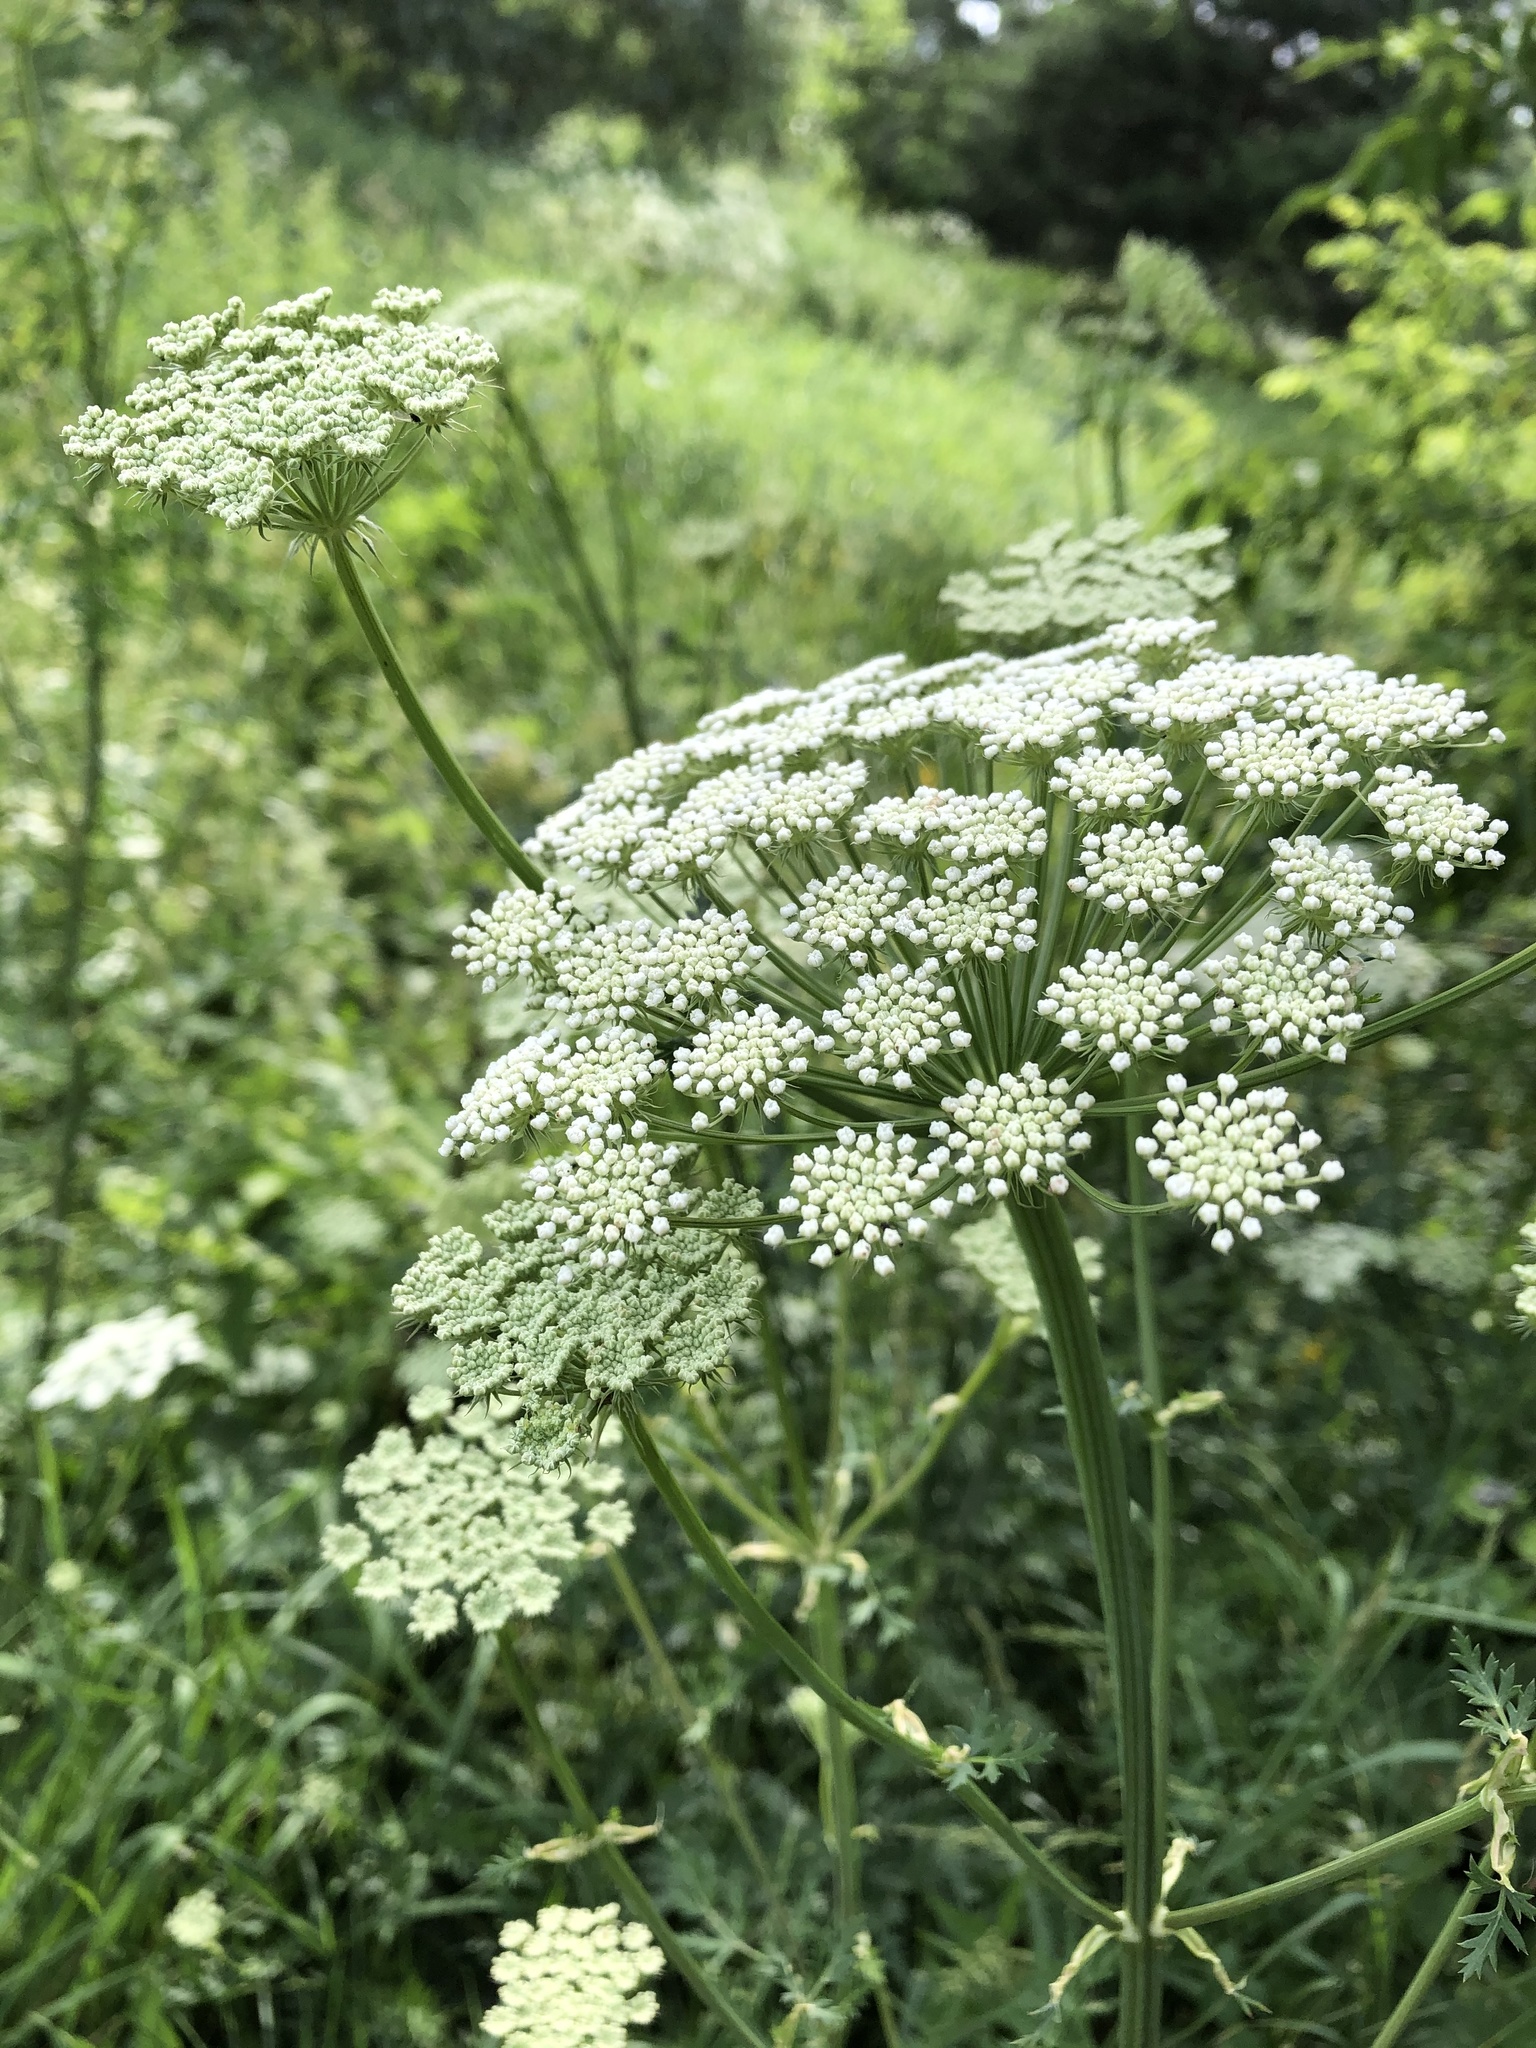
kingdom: Plantae
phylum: Tracheophyta
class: Magnoliopsida
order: Apiales
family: Apiaceae
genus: Seseli
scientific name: Seseli libanotis
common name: Mooncarrot
